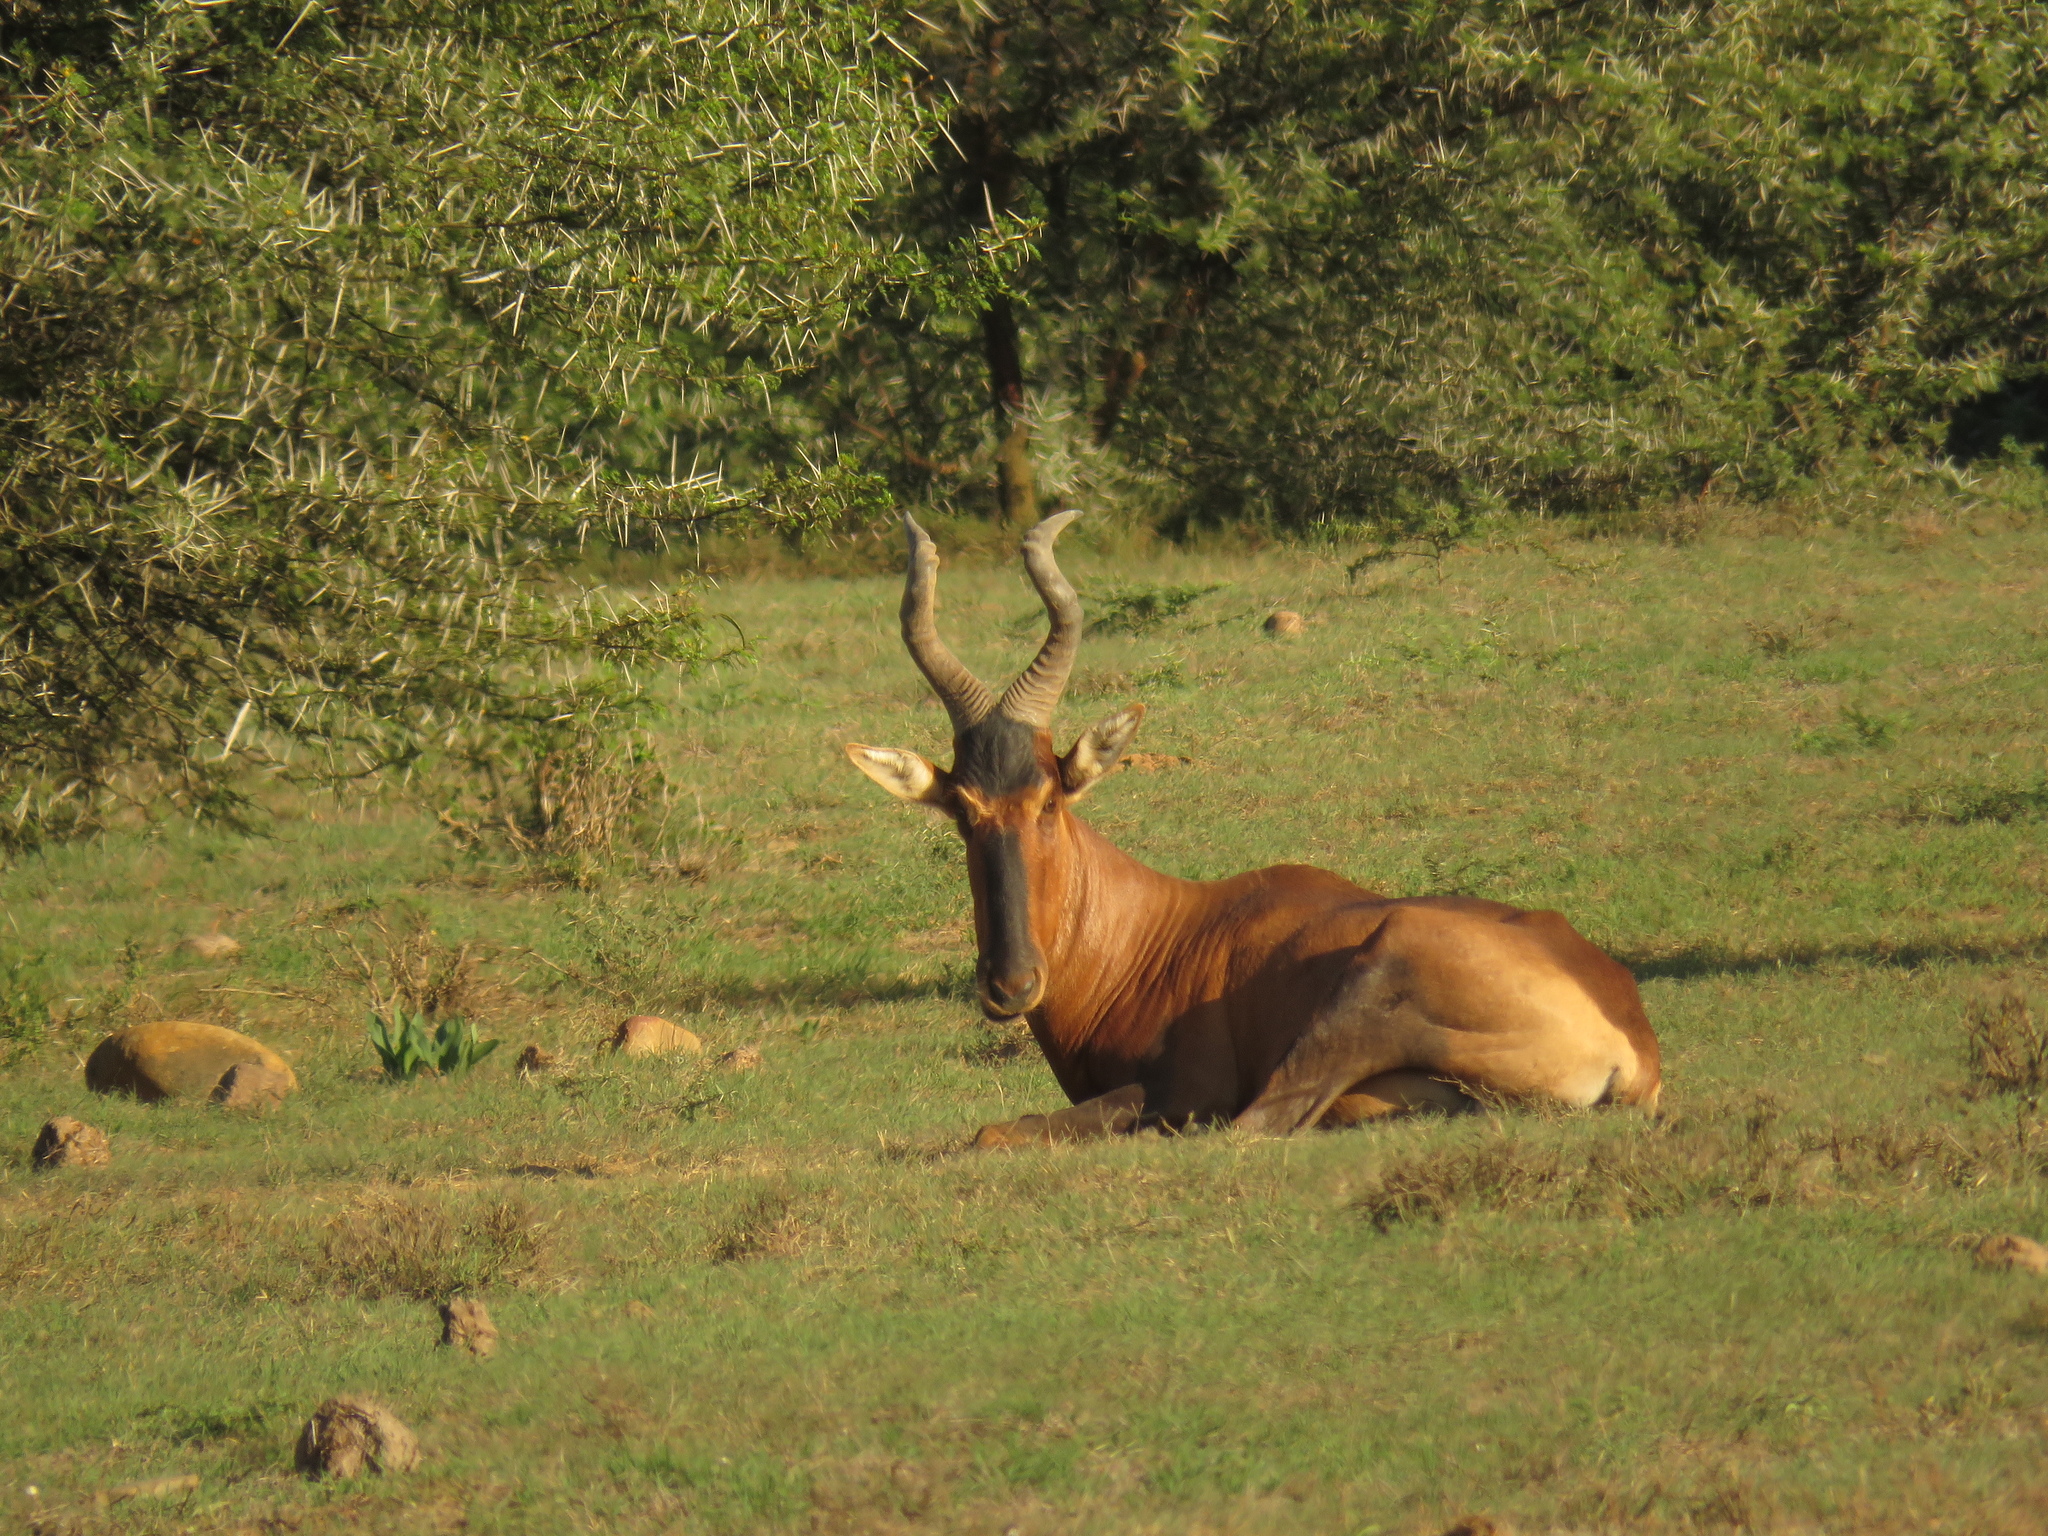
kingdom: Animalia
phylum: Chordata
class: Mammalia
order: Artiodactyla
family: Bovidae
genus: Alcelaphus
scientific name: Alcelaphus caama
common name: Red hartebeest
